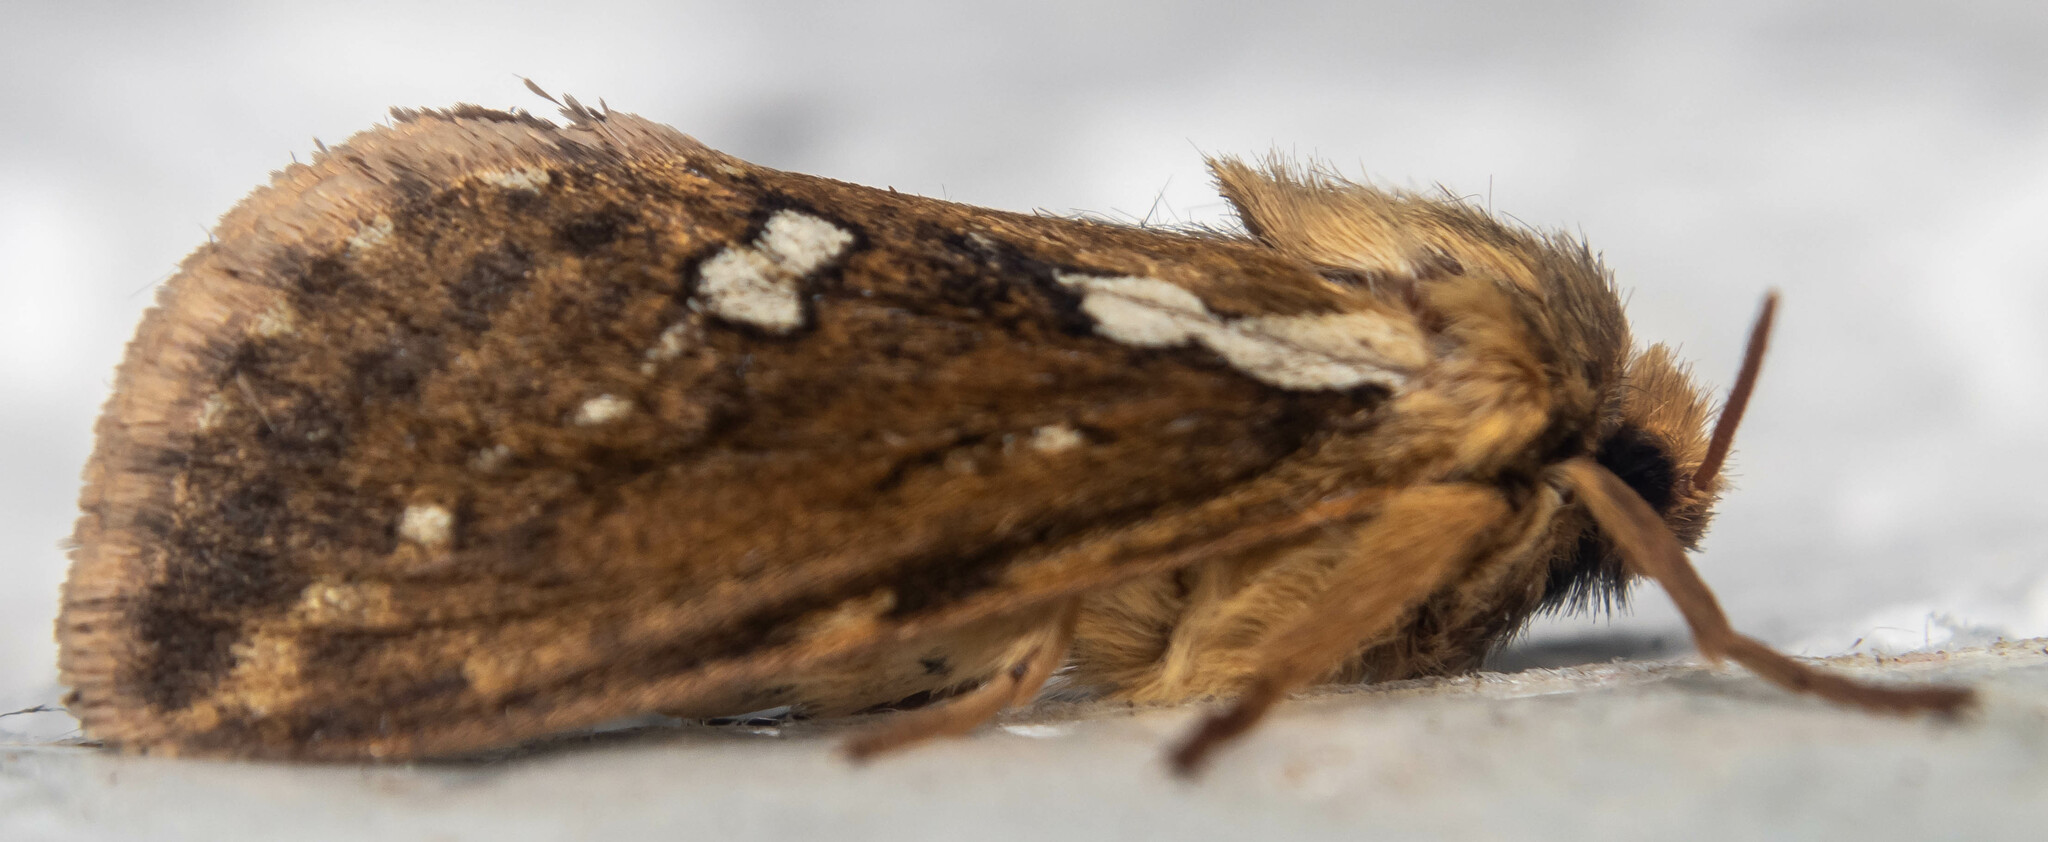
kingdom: Animalia
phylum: Arthropoda
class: Insecta
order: Lepidoptera
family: Hepialidae
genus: Korscheltellus
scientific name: Korscheltellus lupulina
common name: Common swift
